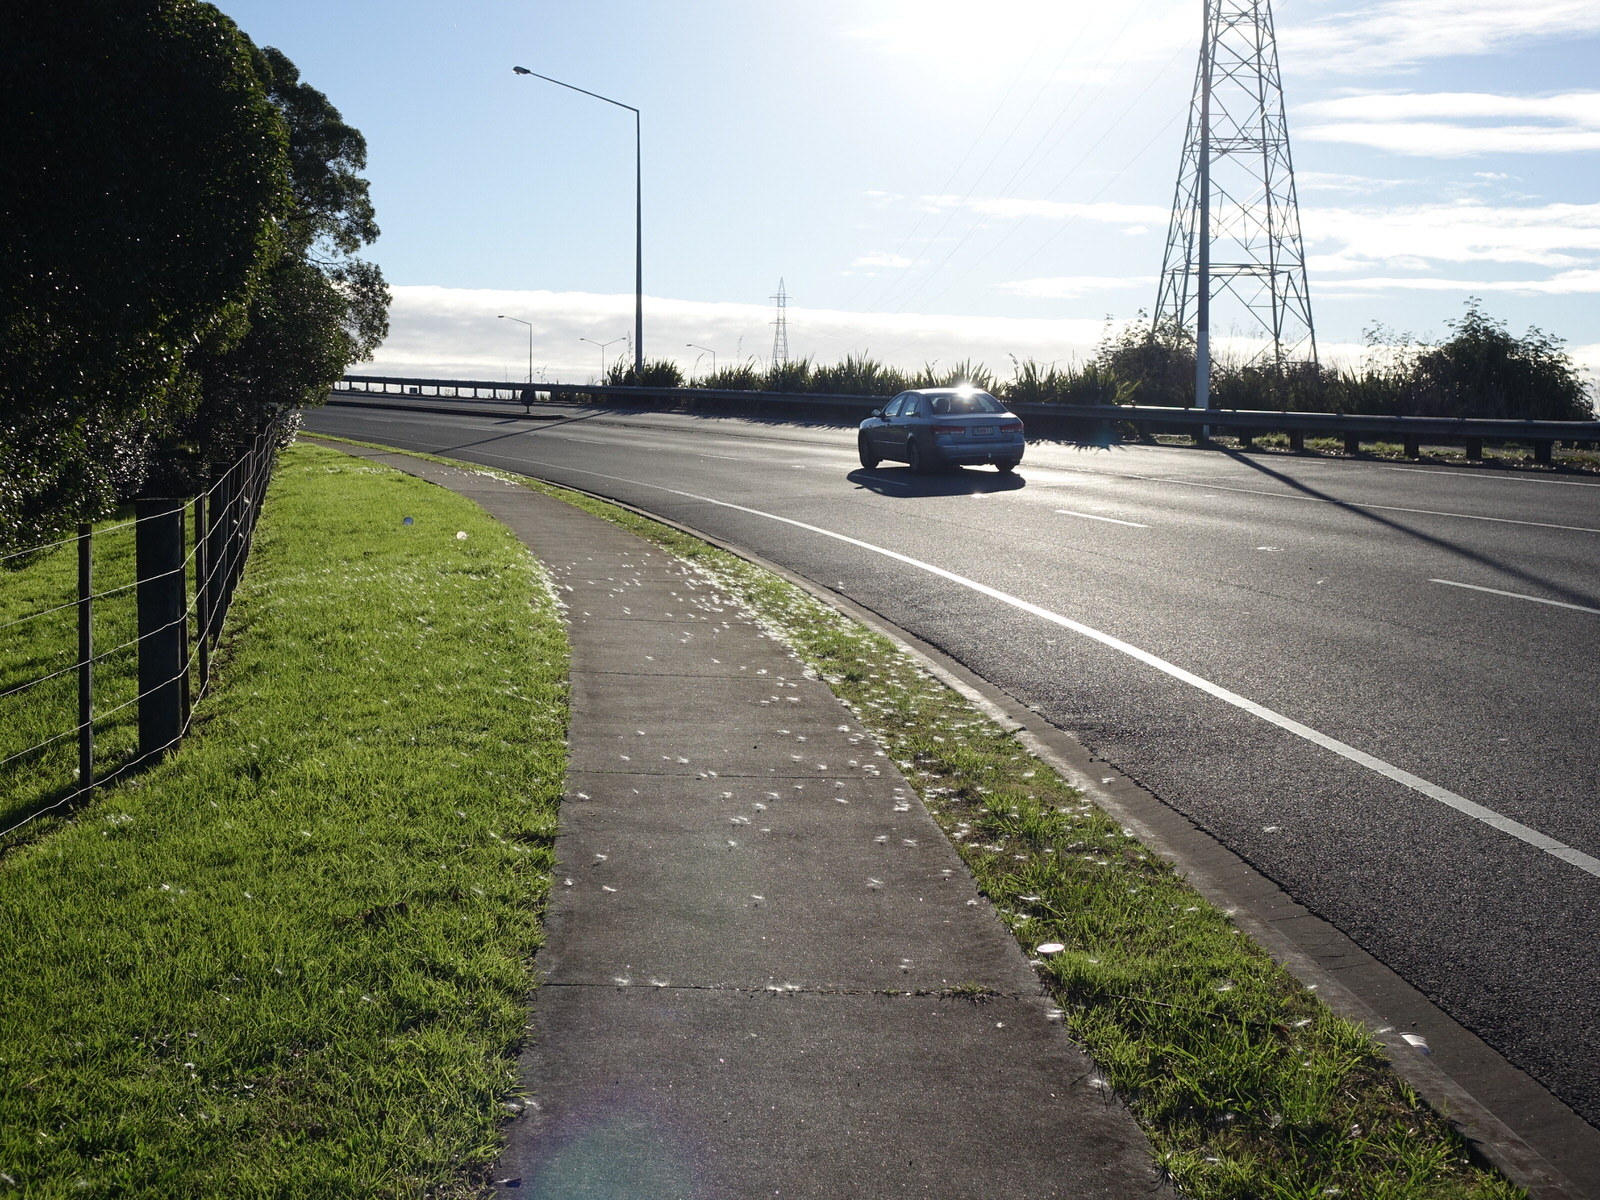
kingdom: Plantae
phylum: Tracheophyta
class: Magnoliopsida
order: Gentianales
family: Apocynaceae
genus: Araujia
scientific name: Araujia sericifera
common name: White bladderflower
